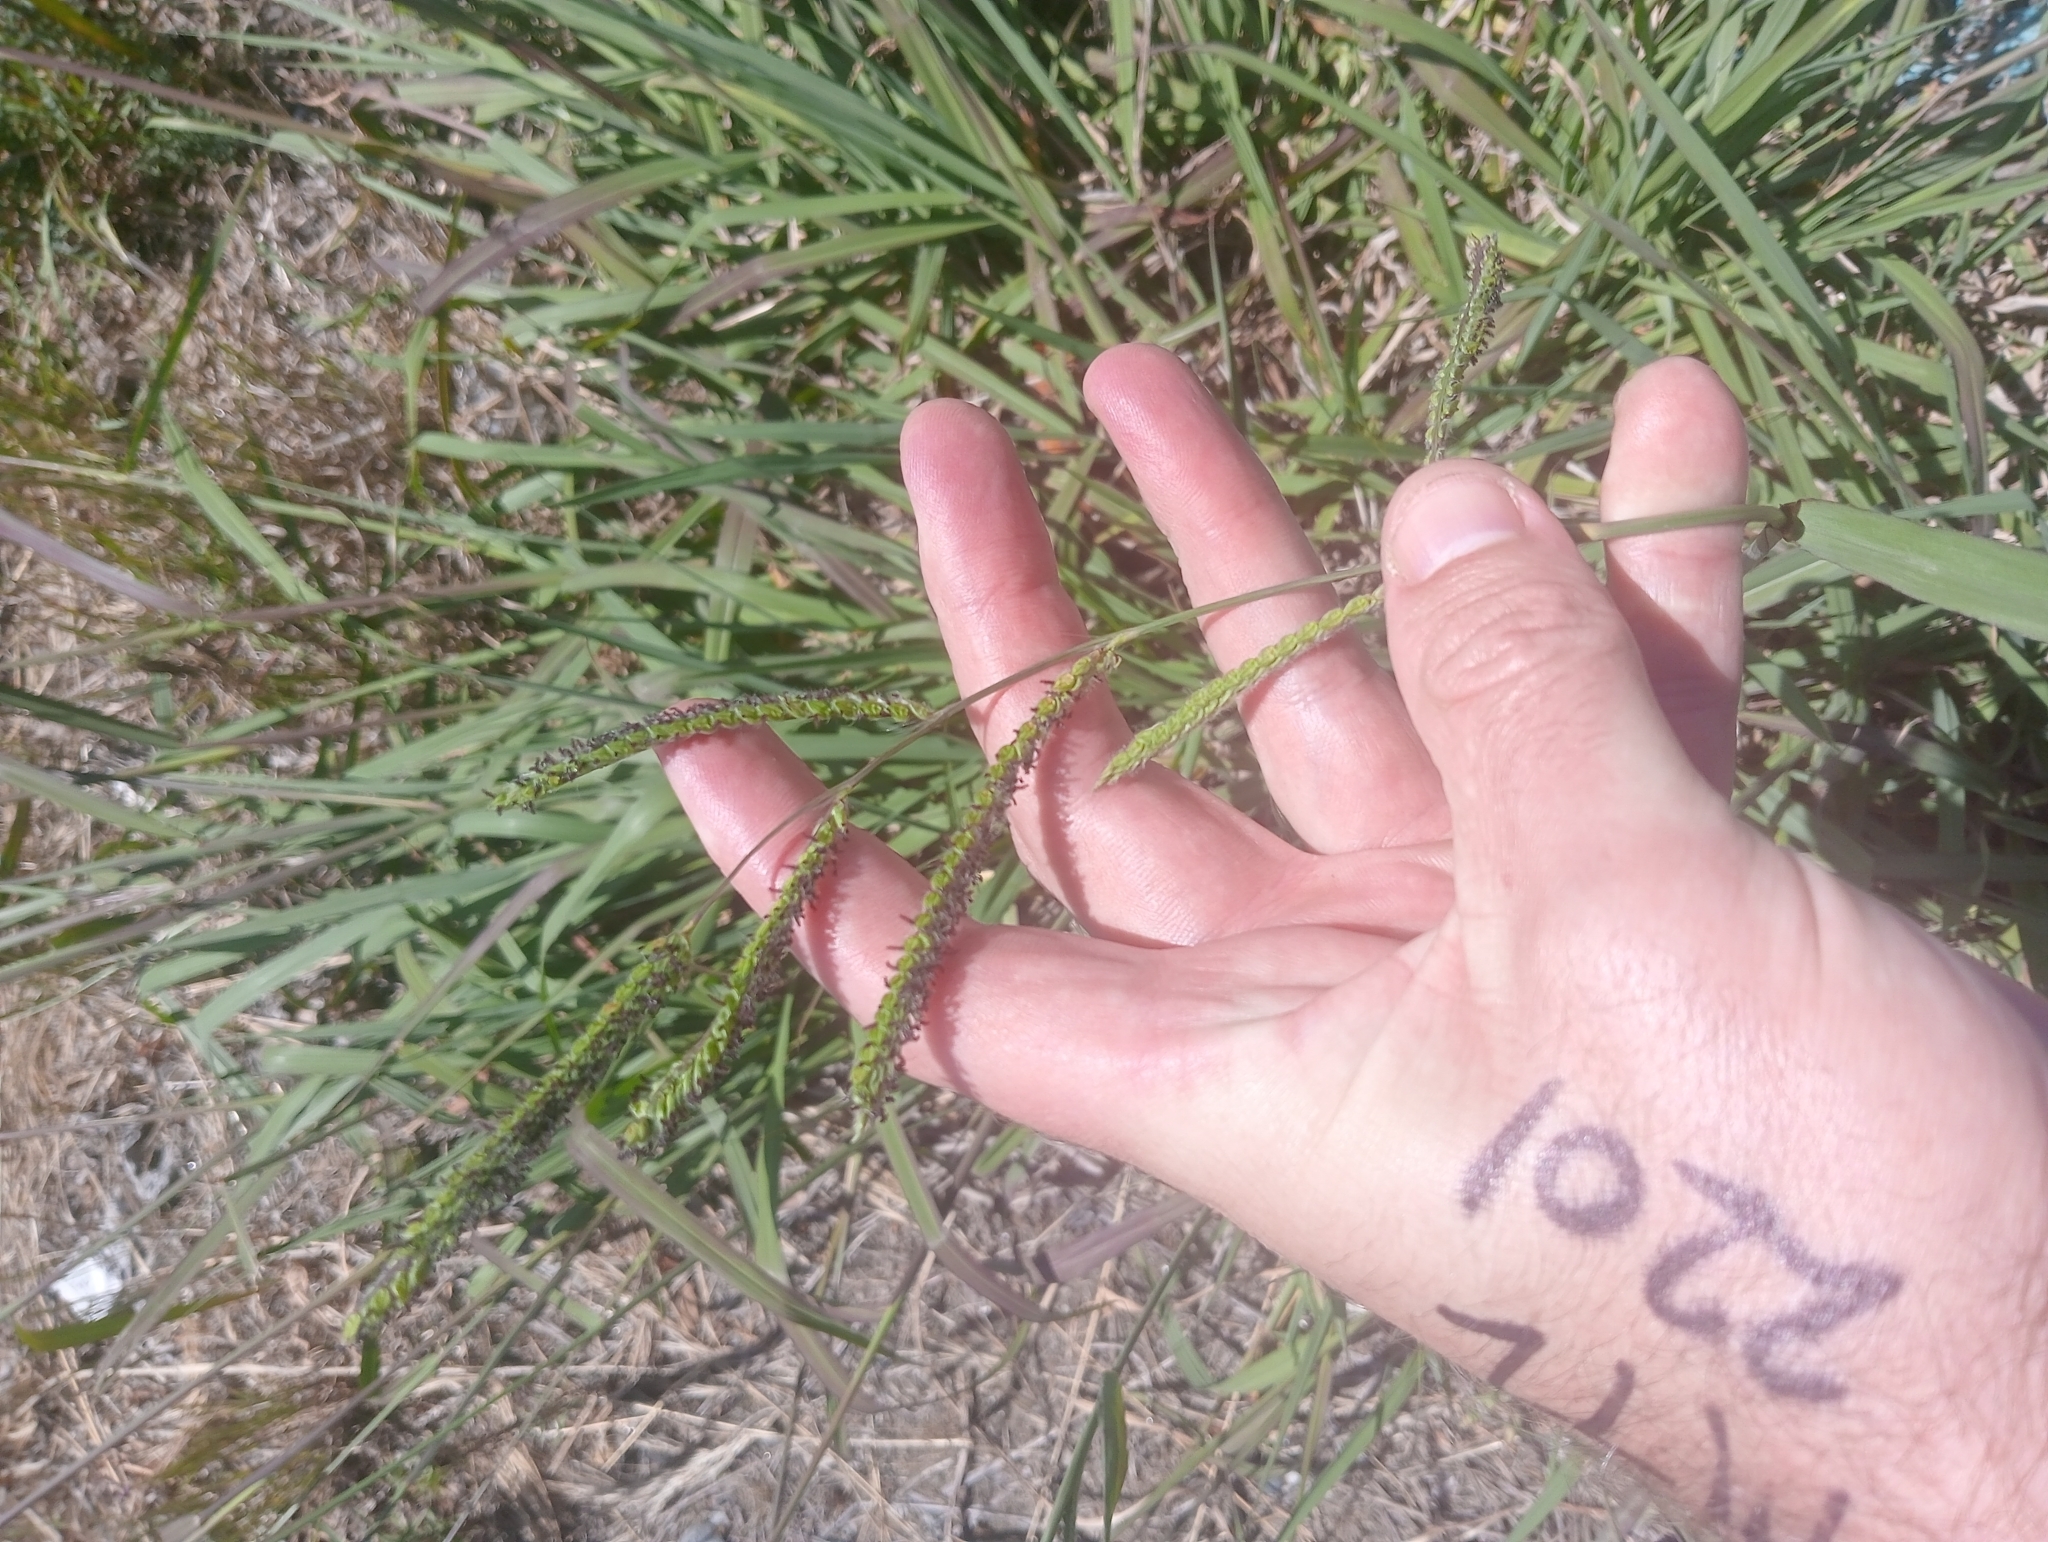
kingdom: Plantae
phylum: Tracheophyta
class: Liliopsida
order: Poales
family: Poaceae
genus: Paspalum
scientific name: Paspalum dilatatum
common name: Dallisgrass
